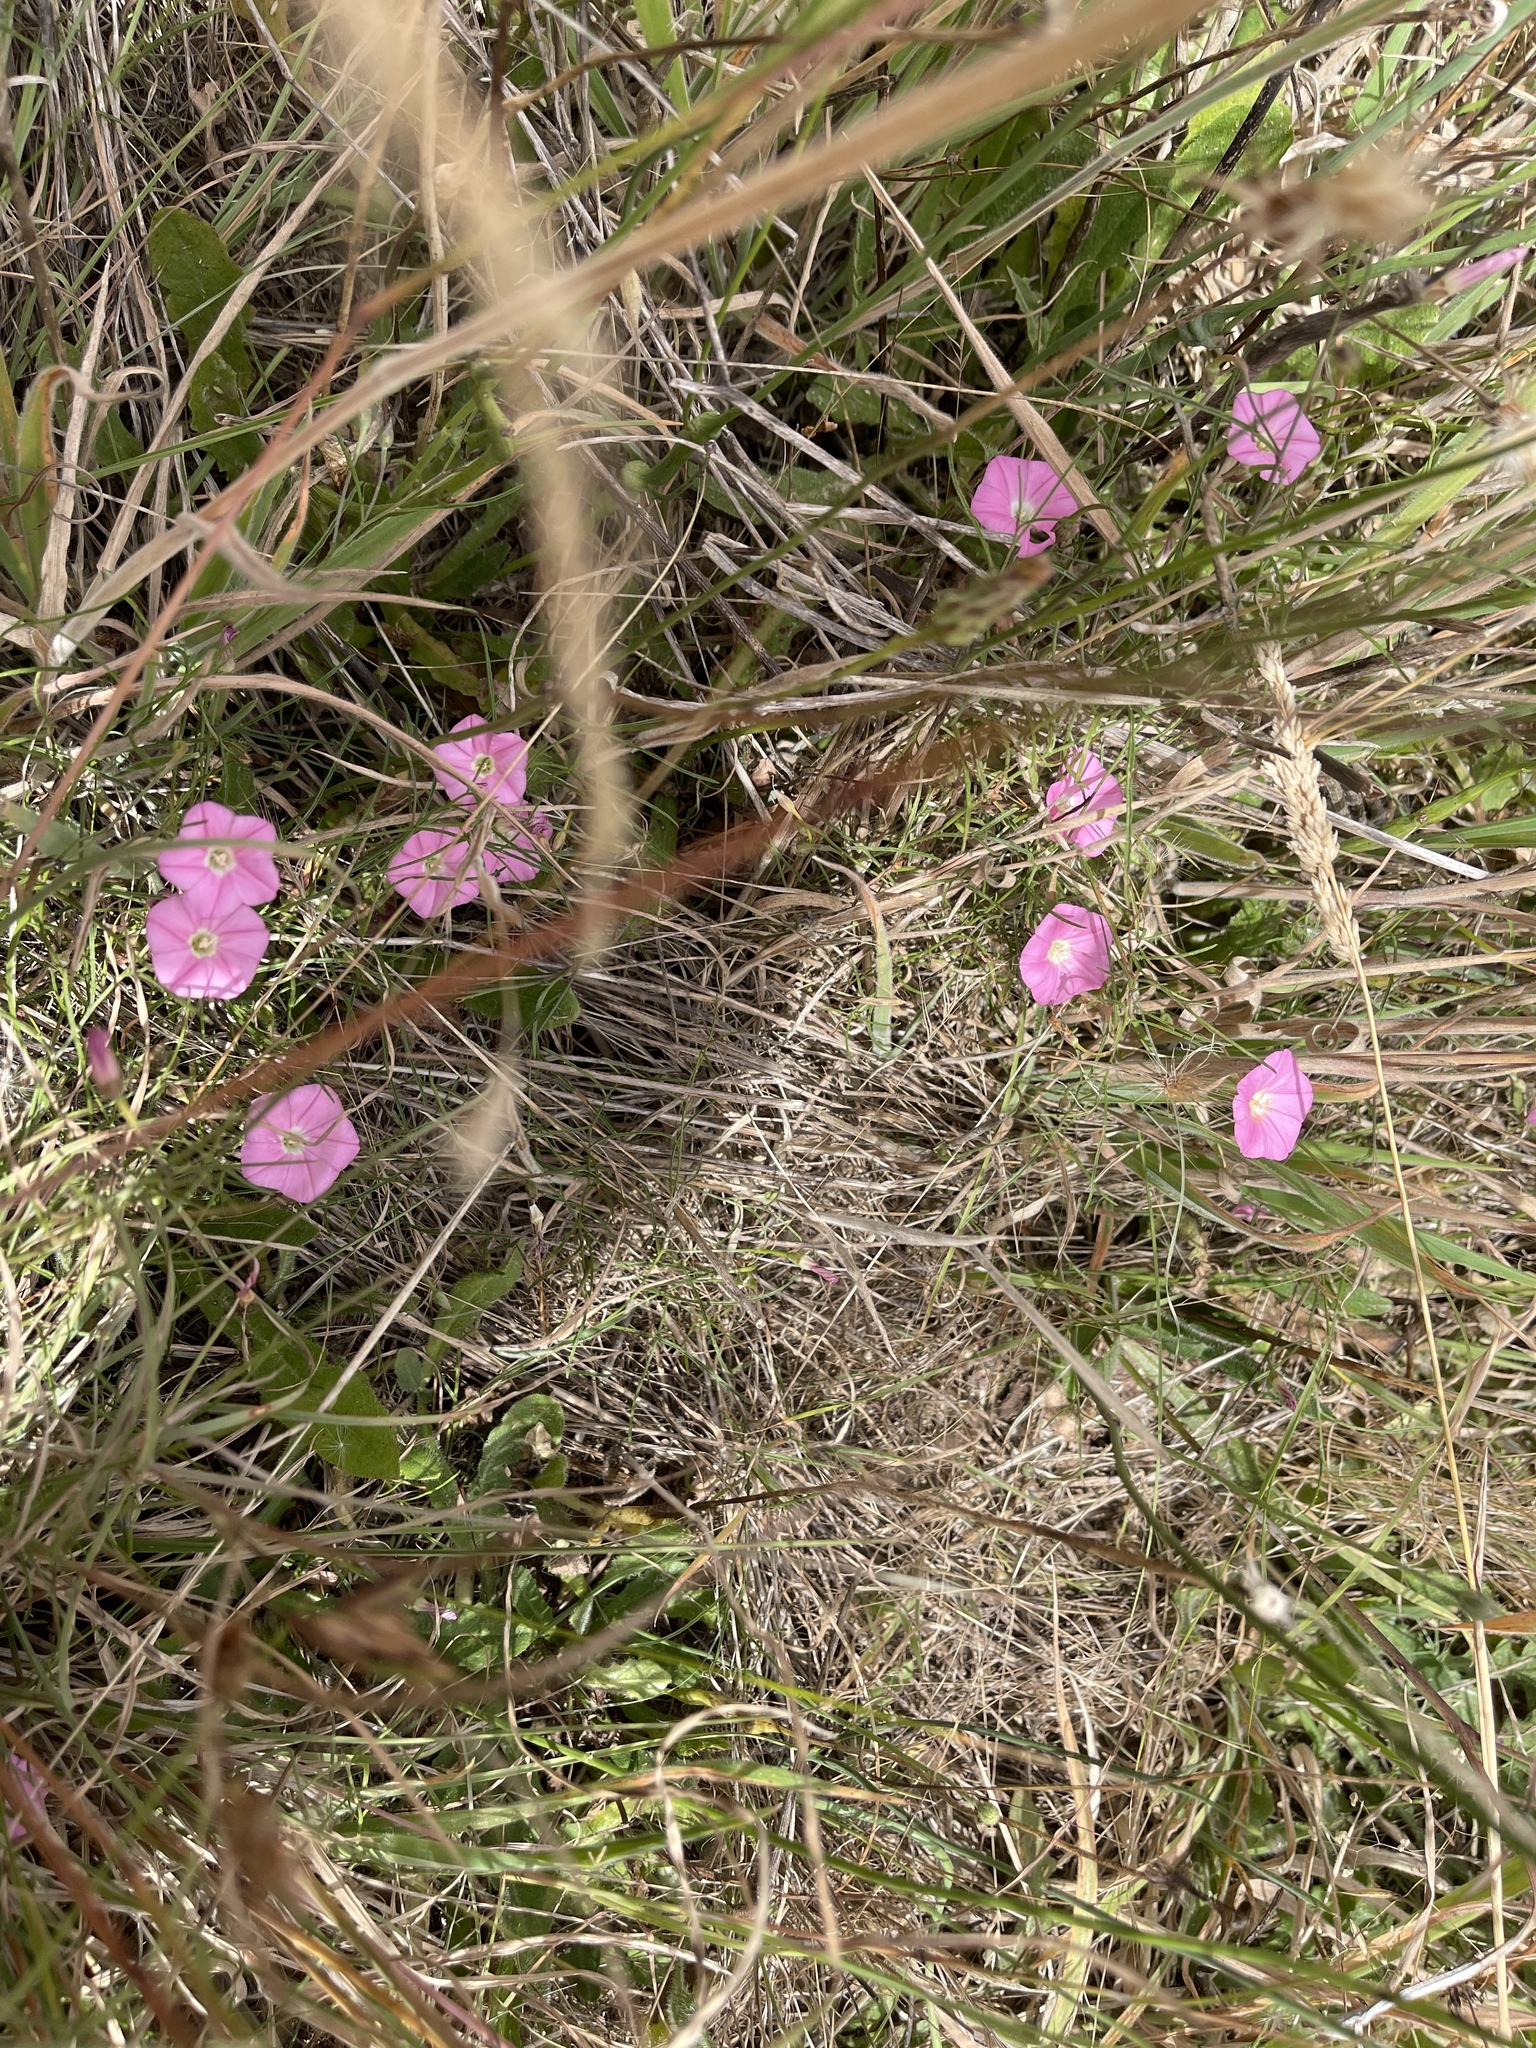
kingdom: Plantae
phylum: Tracheophyta
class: Magnoliopsida
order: Solanales
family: Convolvulaceae
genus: Convolvulus
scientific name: Convolvulus angustissimus
